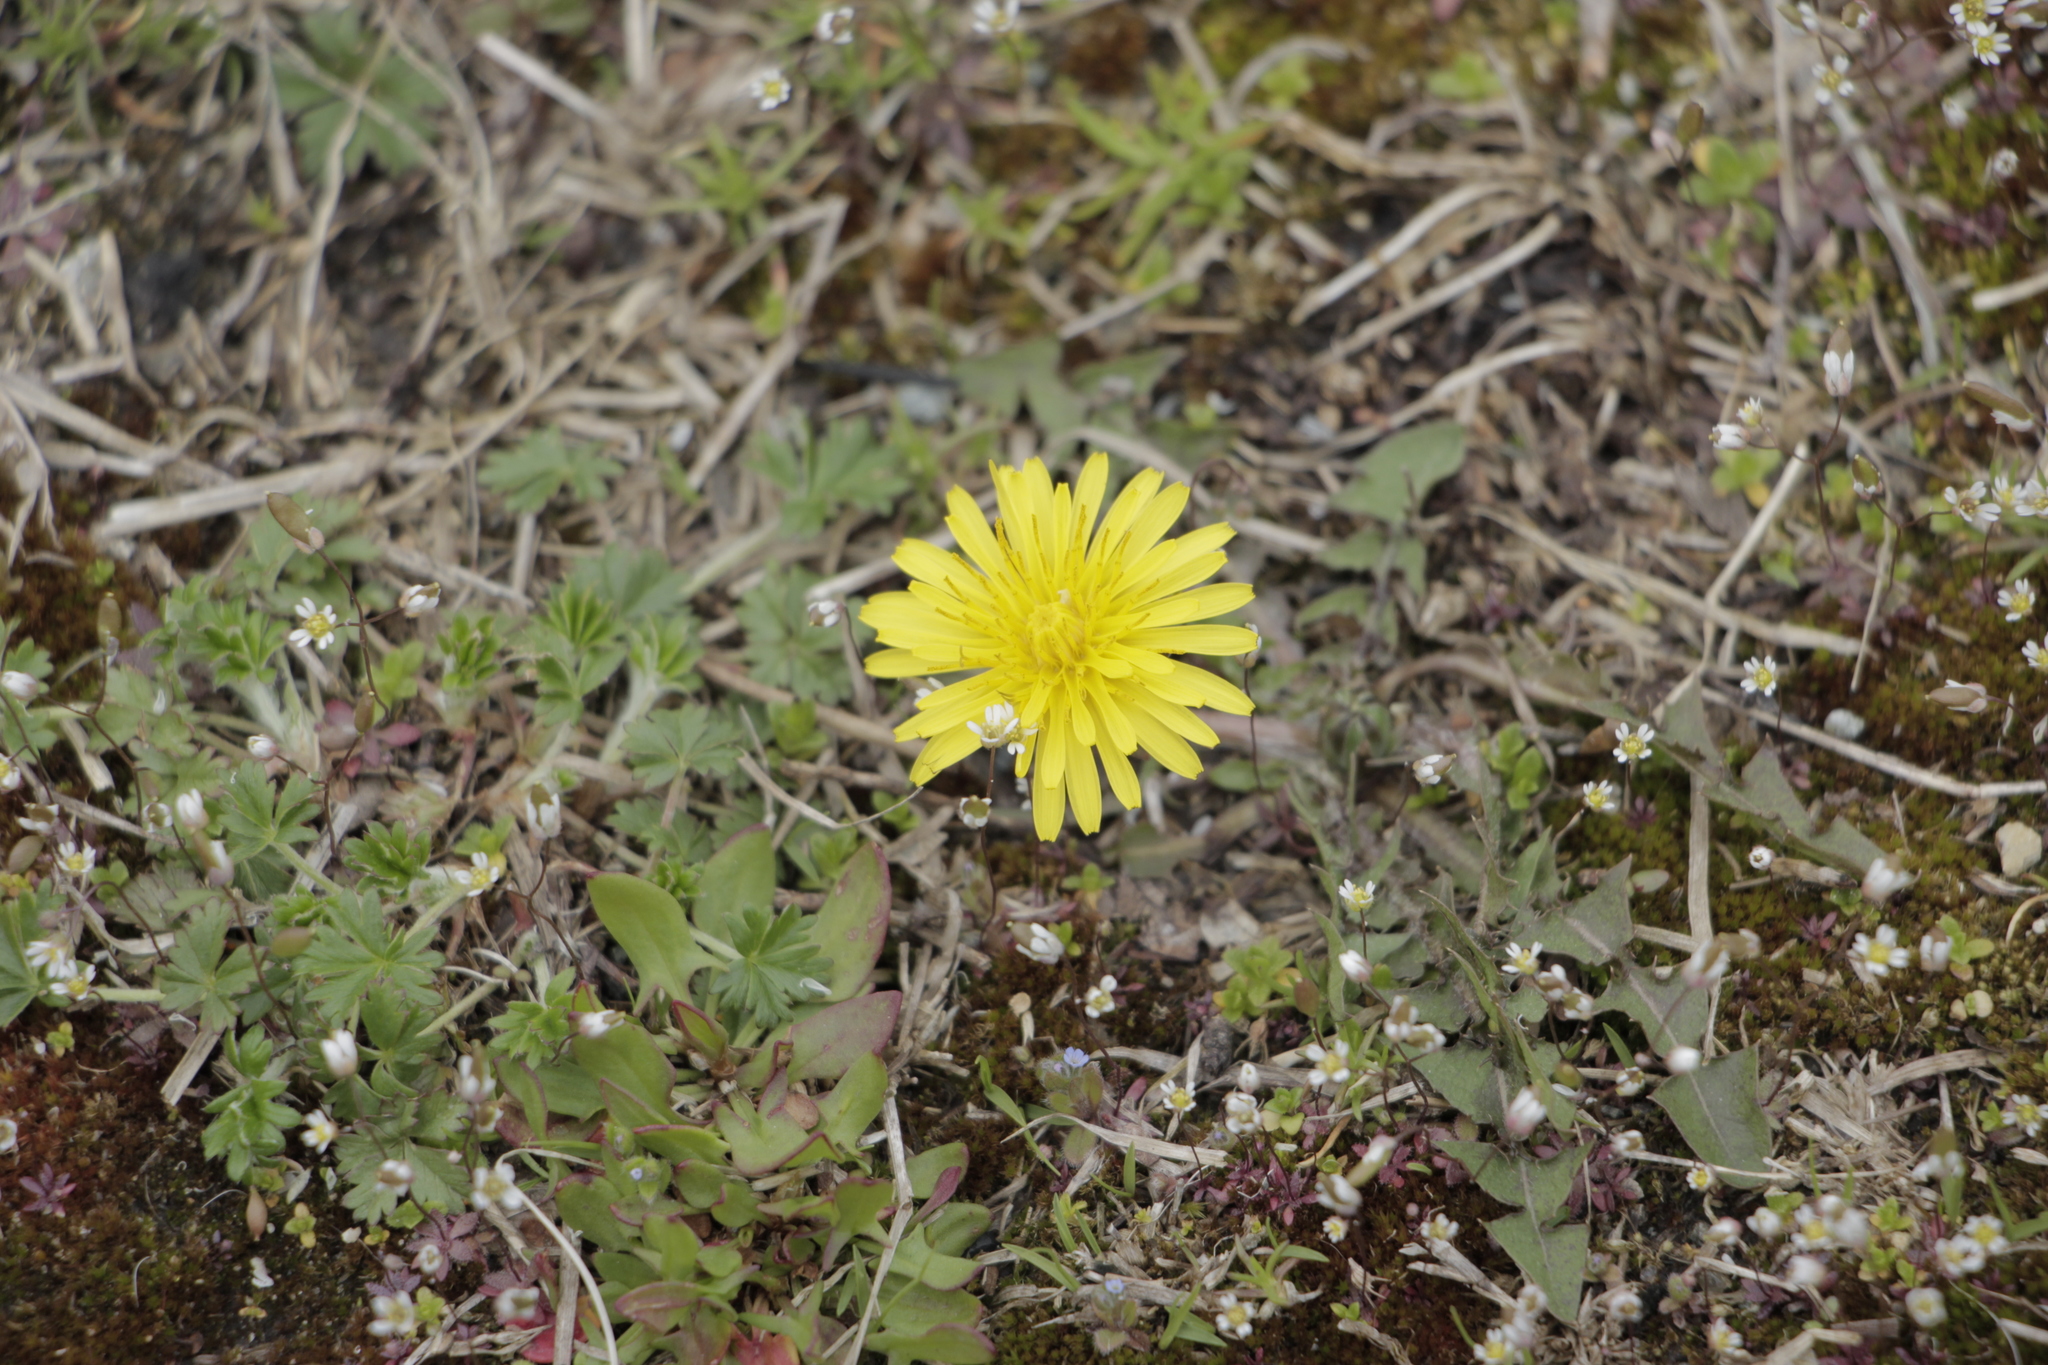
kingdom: Plantae
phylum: Tracheophyta
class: Magnoliopsida
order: Asterales
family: Asteraceae
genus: Taraxacum
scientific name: Taraxacum officinale
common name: Common dandelion
